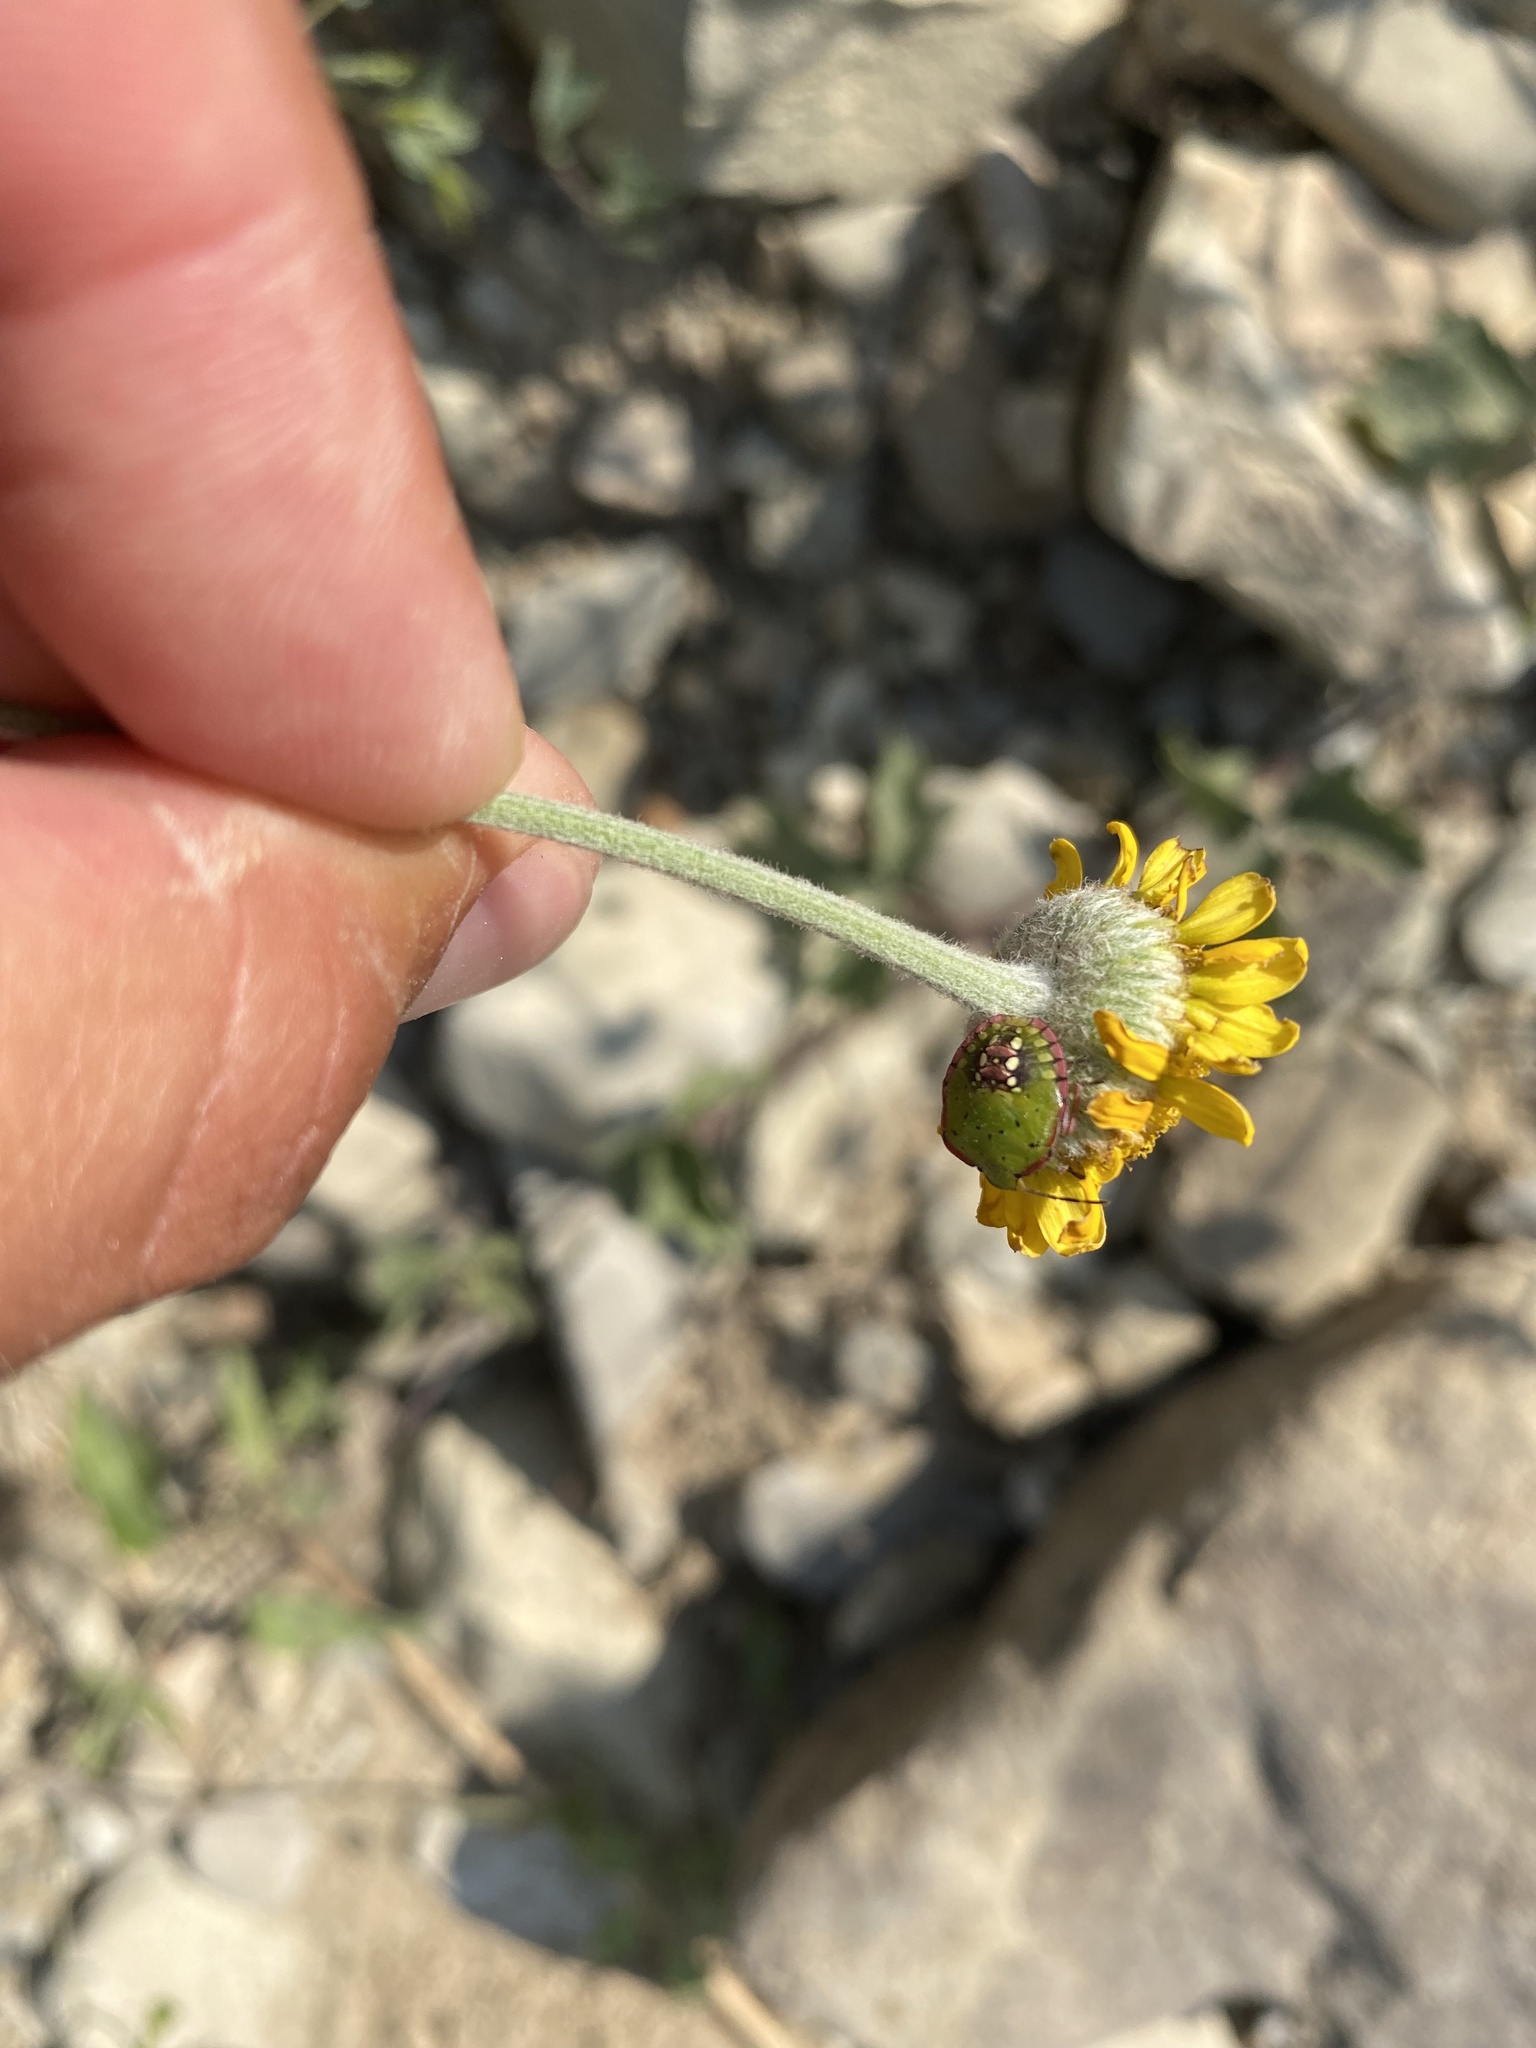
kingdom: Plantae
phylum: Tracheophyta
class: Magnoliopsida
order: Asterales
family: Asteraceae
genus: Cota
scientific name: Cota tinctoria
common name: Golden chamomile
